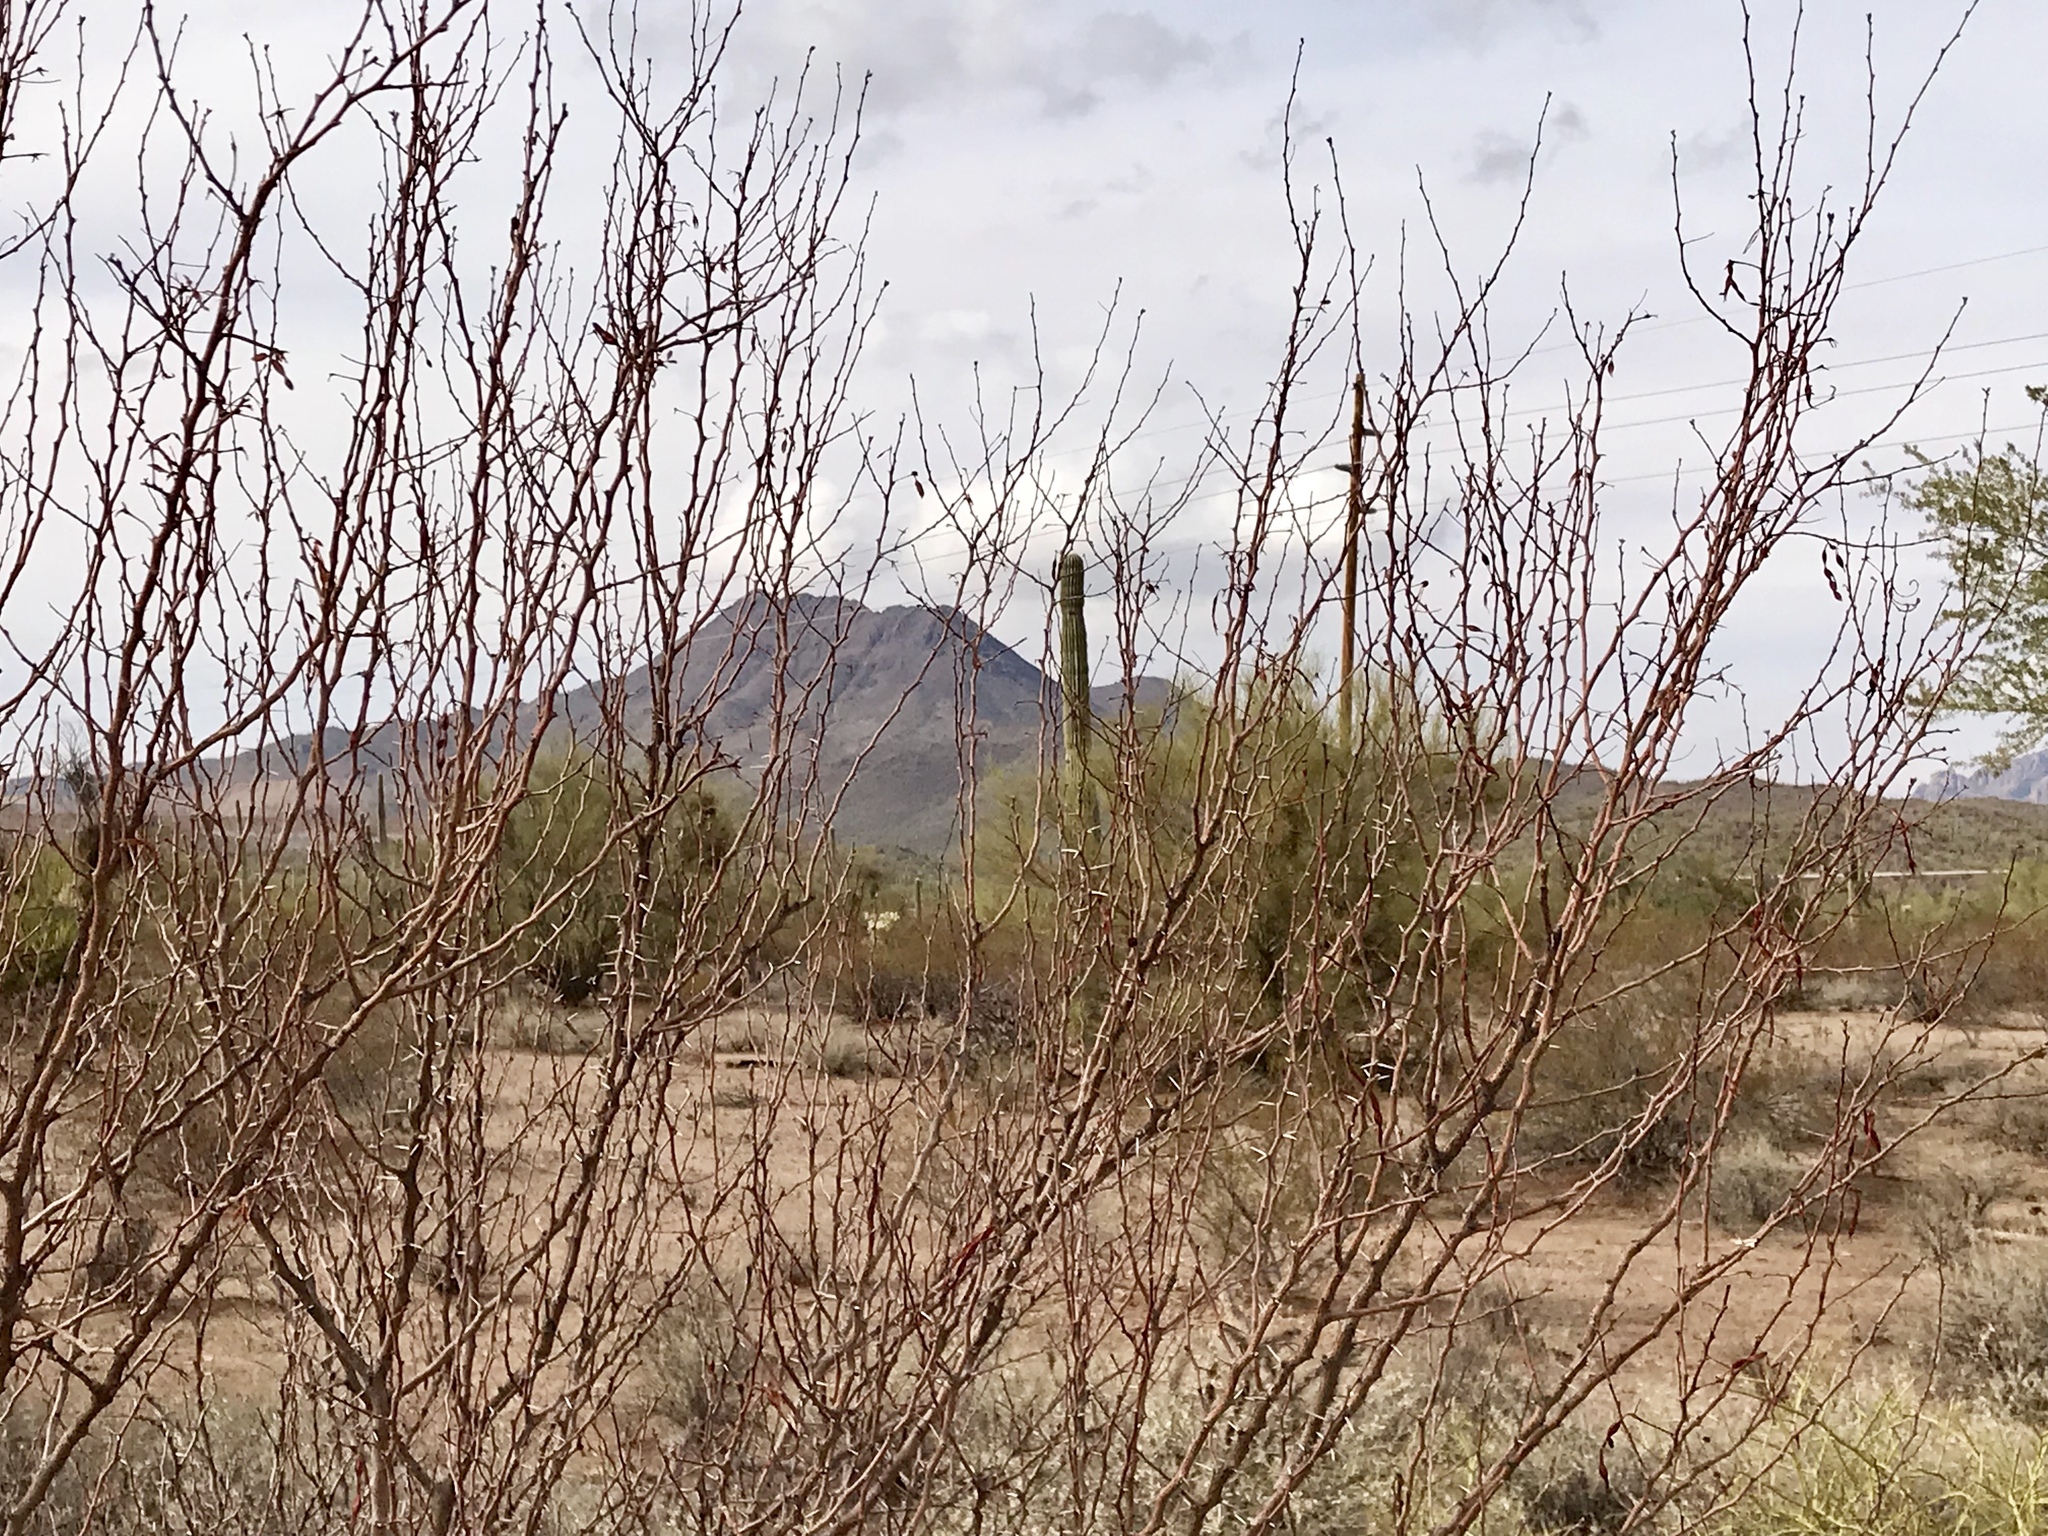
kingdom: Plantae
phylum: Tracheophyta
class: Magnoliopsida
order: Fabales
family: Fabaceae
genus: Vachellia
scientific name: Vachellia constricta
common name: Mescat acacia
